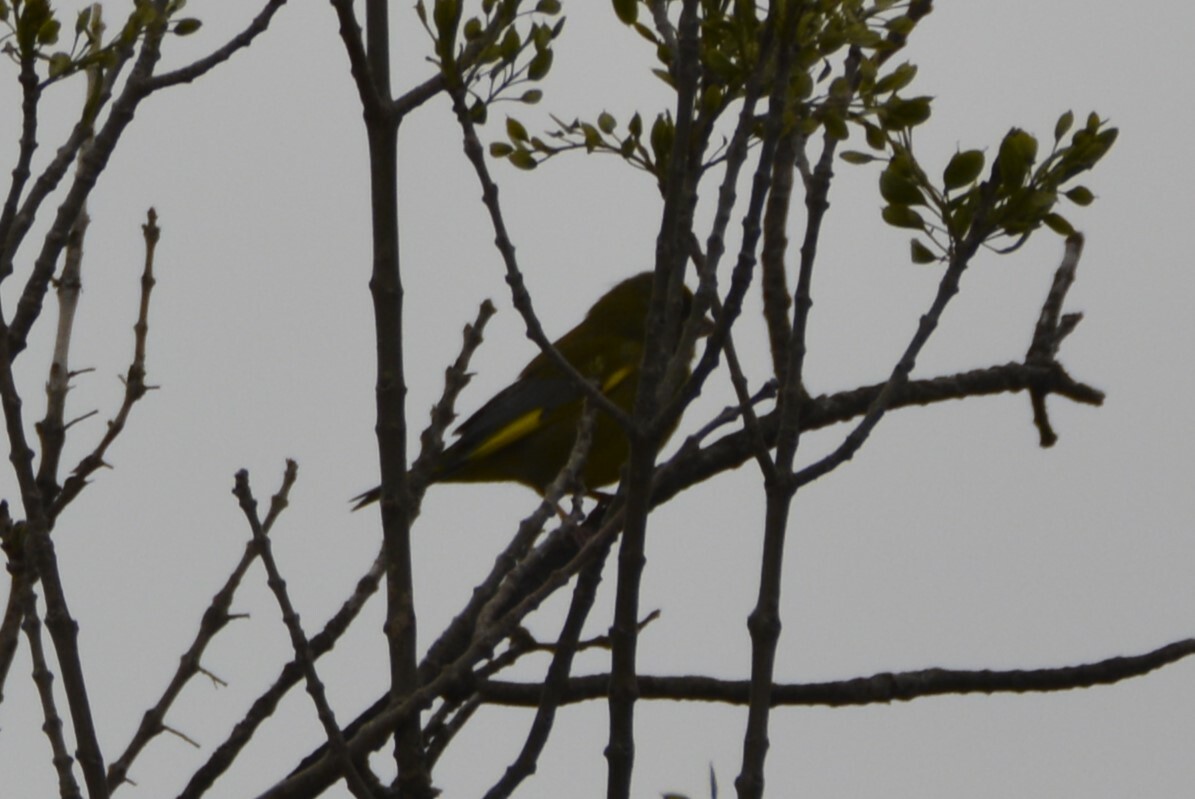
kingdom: Plantae
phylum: Tracheophyta
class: Liliopsida
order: Poales
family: Poaceae
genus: Chloris
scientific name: Chloris chloris
